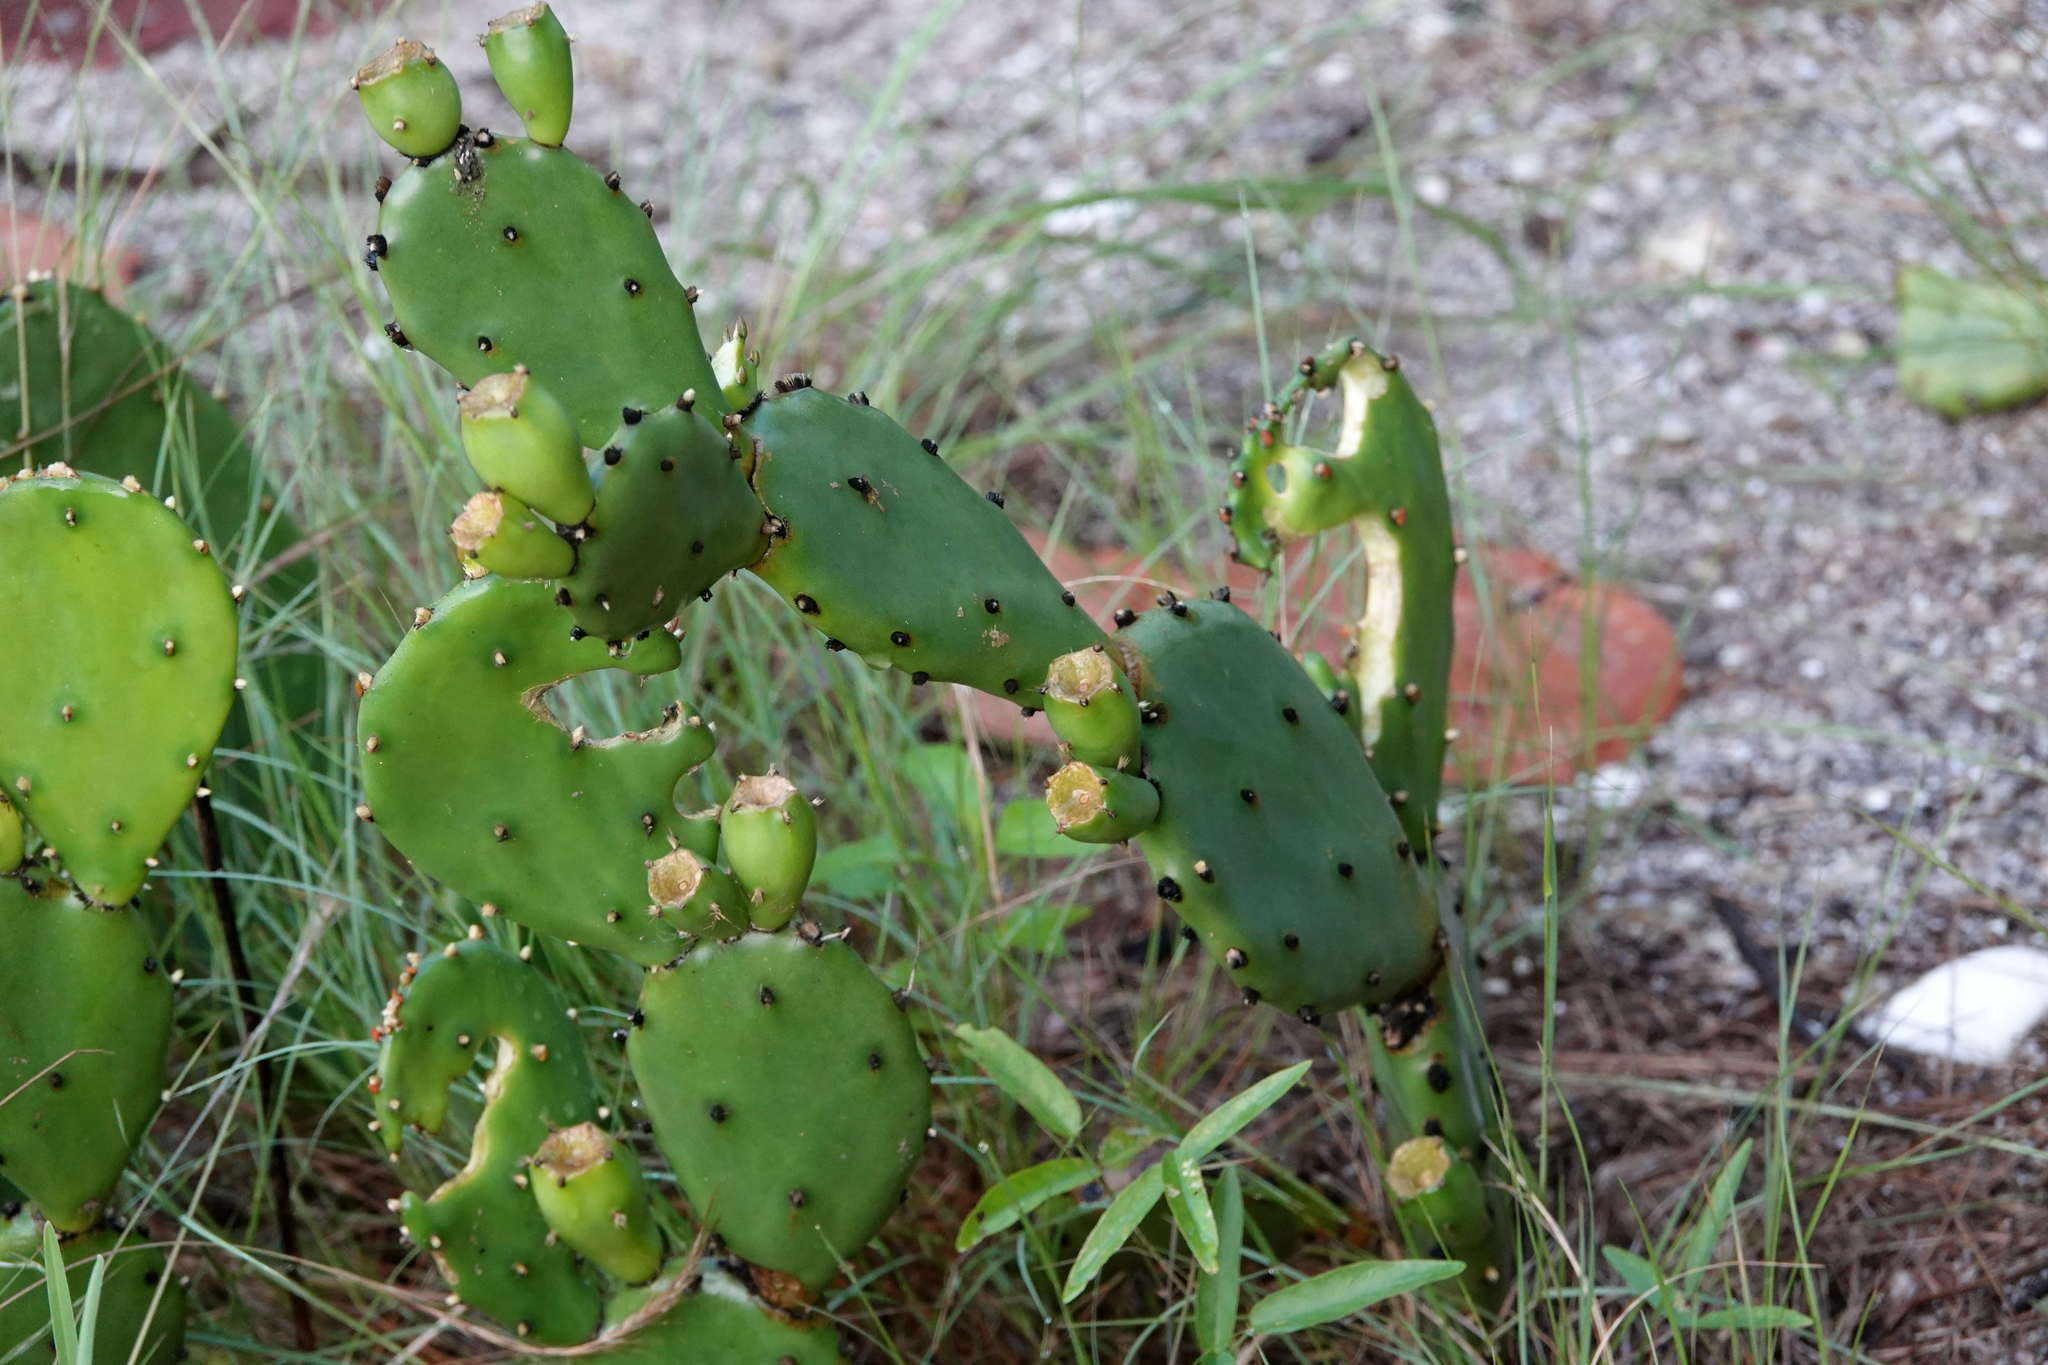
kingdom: Plantae
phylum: Tracheophyta
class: Magnoliopsida
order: Caryophyllales
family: Cactaceae
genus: Opuntia
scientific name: Opuntia austrina
